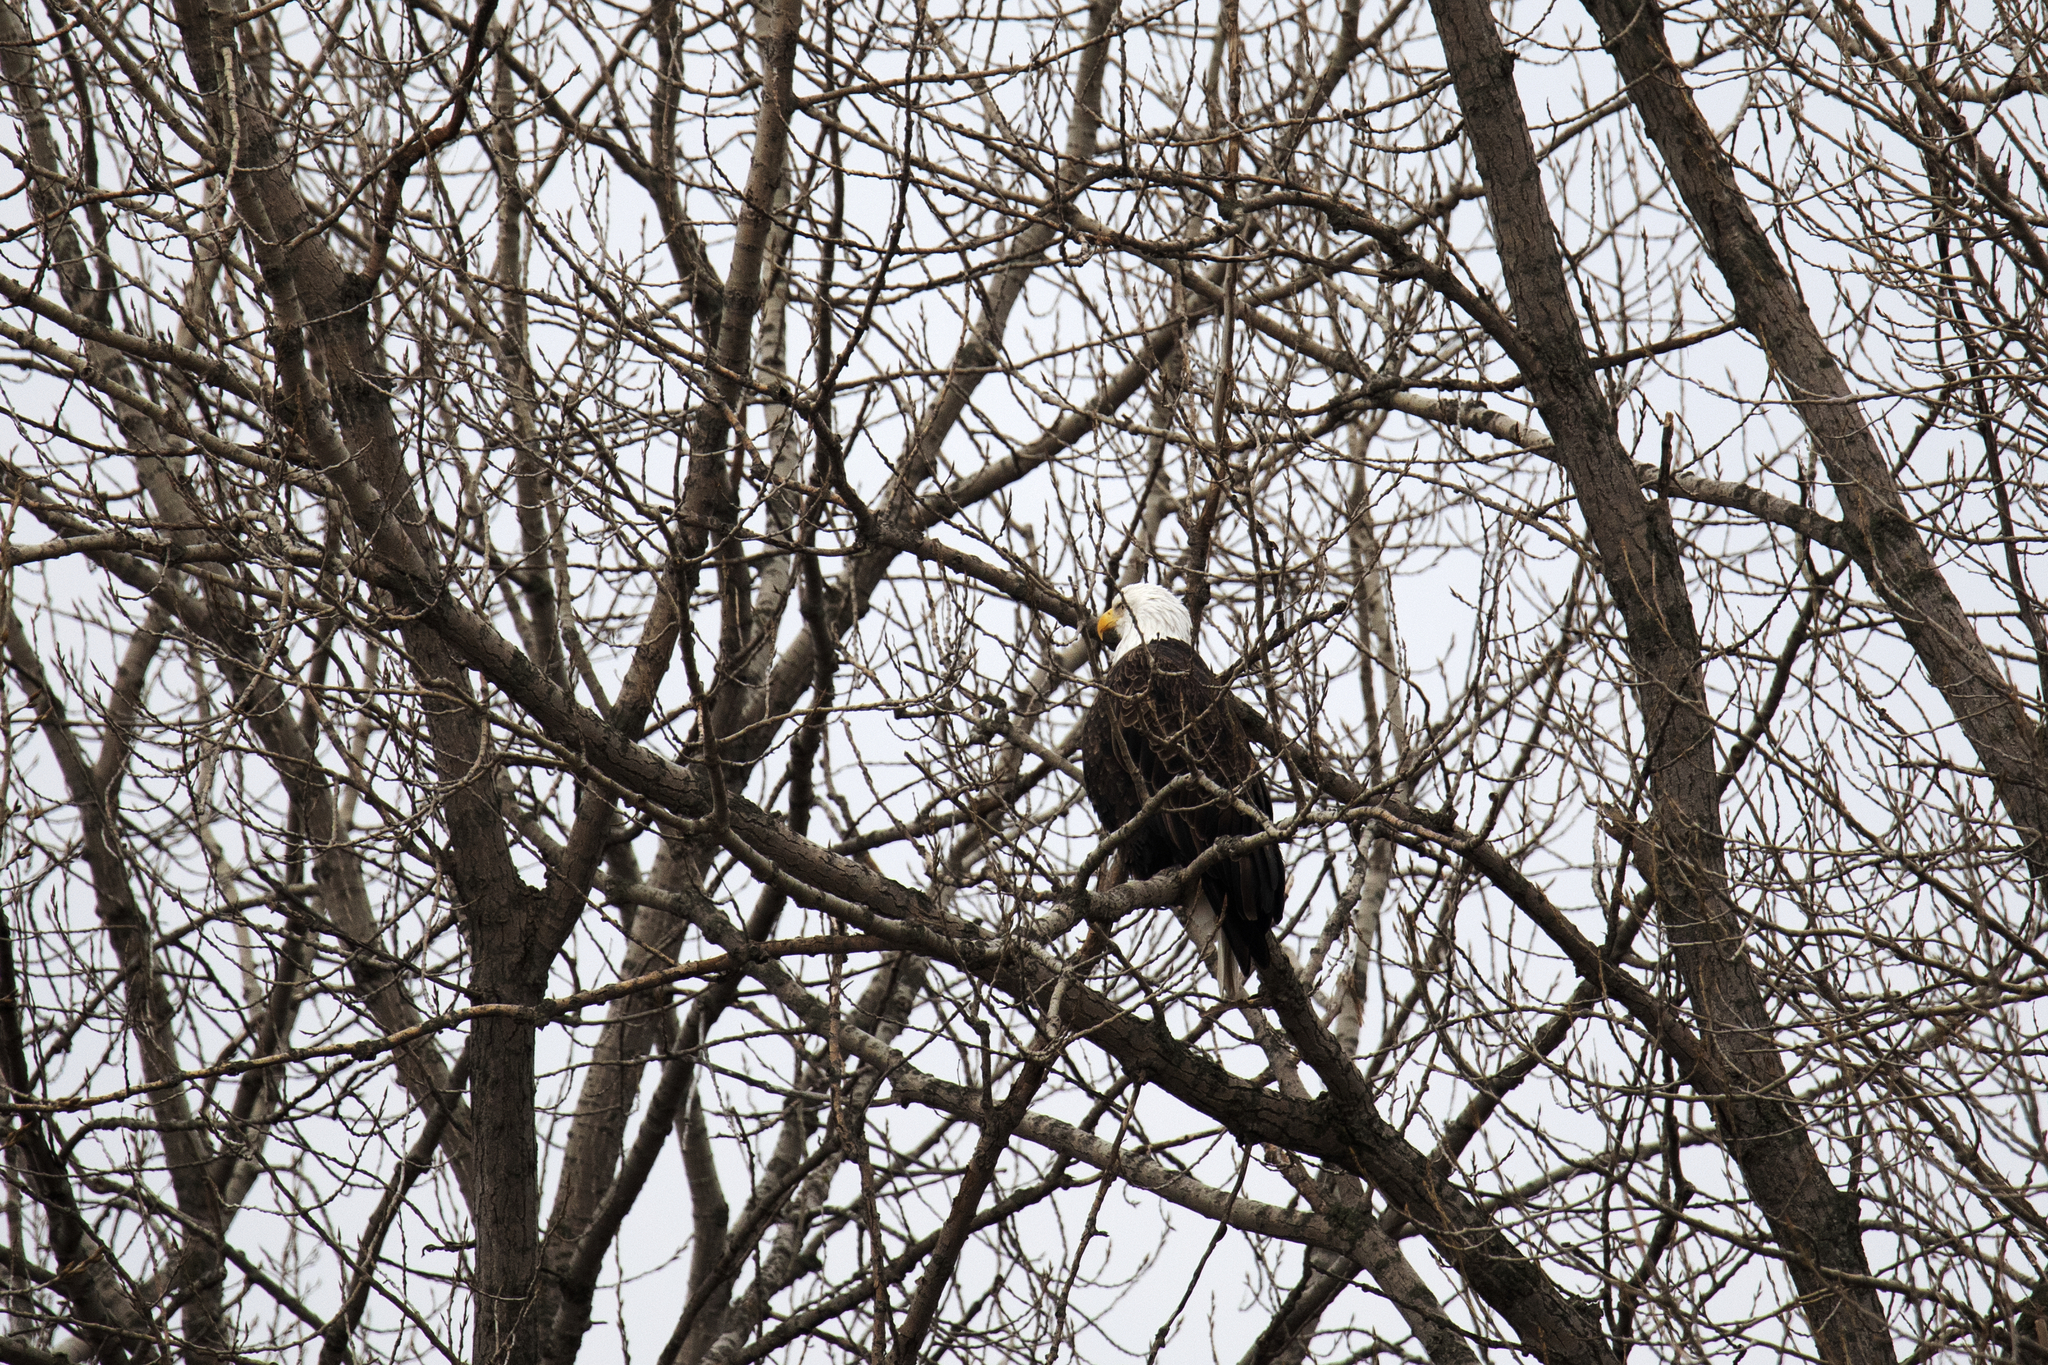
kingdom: Animalia
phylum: Chordata
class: Aves
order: Accipitriformes
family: Accipitridae
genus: Haliaeetus
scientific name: Haliaeetus leucocephalus
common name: Bald eagle
